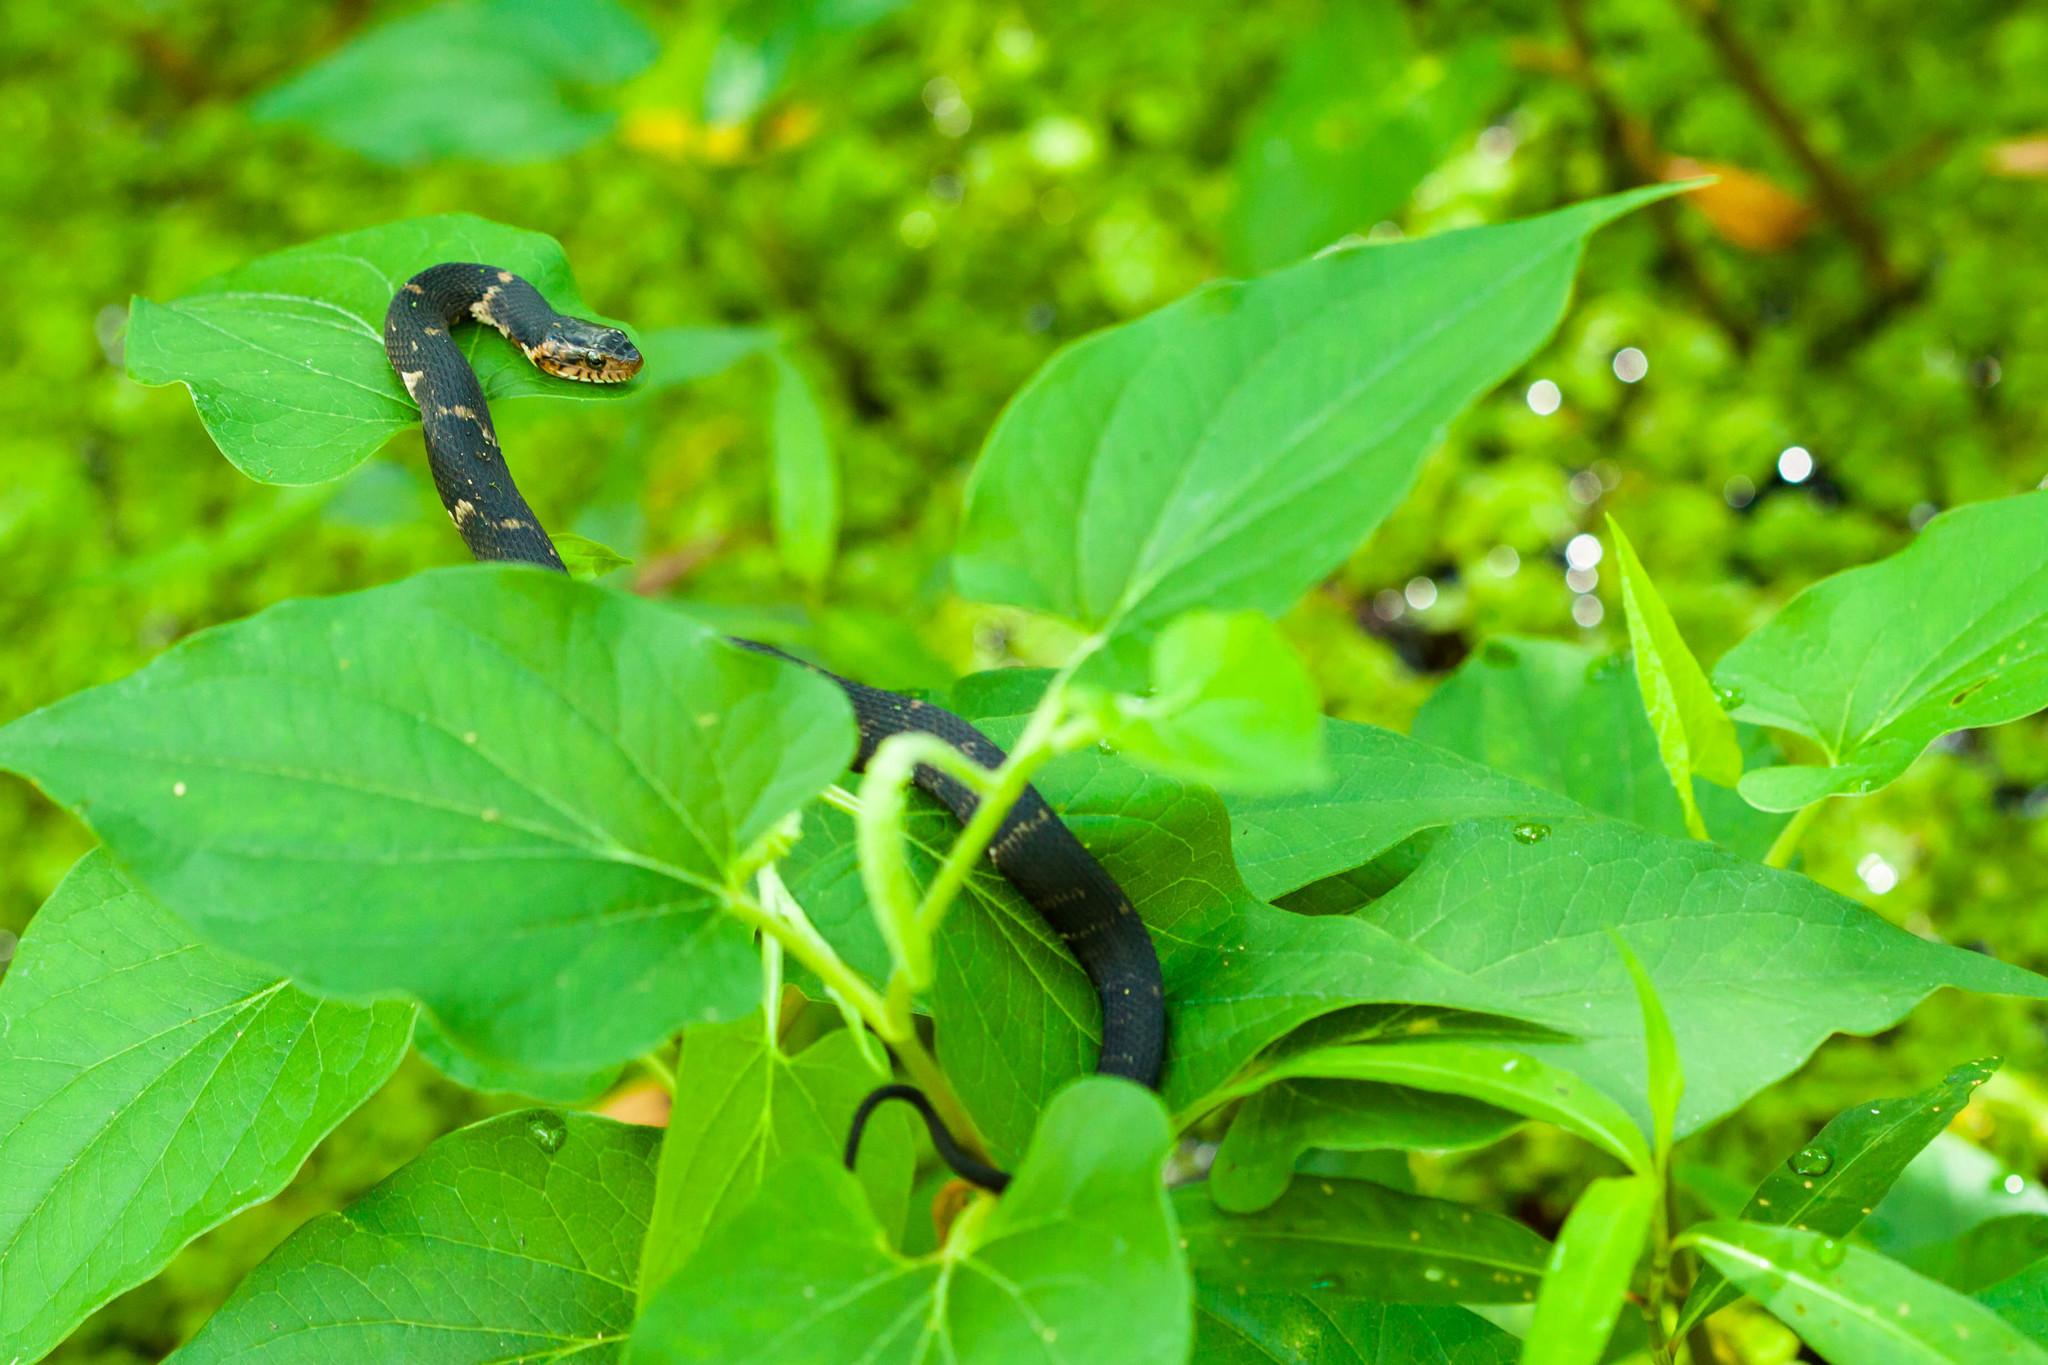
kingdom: Animalia
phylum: Chordata
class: Squamata
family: Colubridae
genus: Nerodia
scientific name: Nerodia fasciata
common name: Southern water snake
